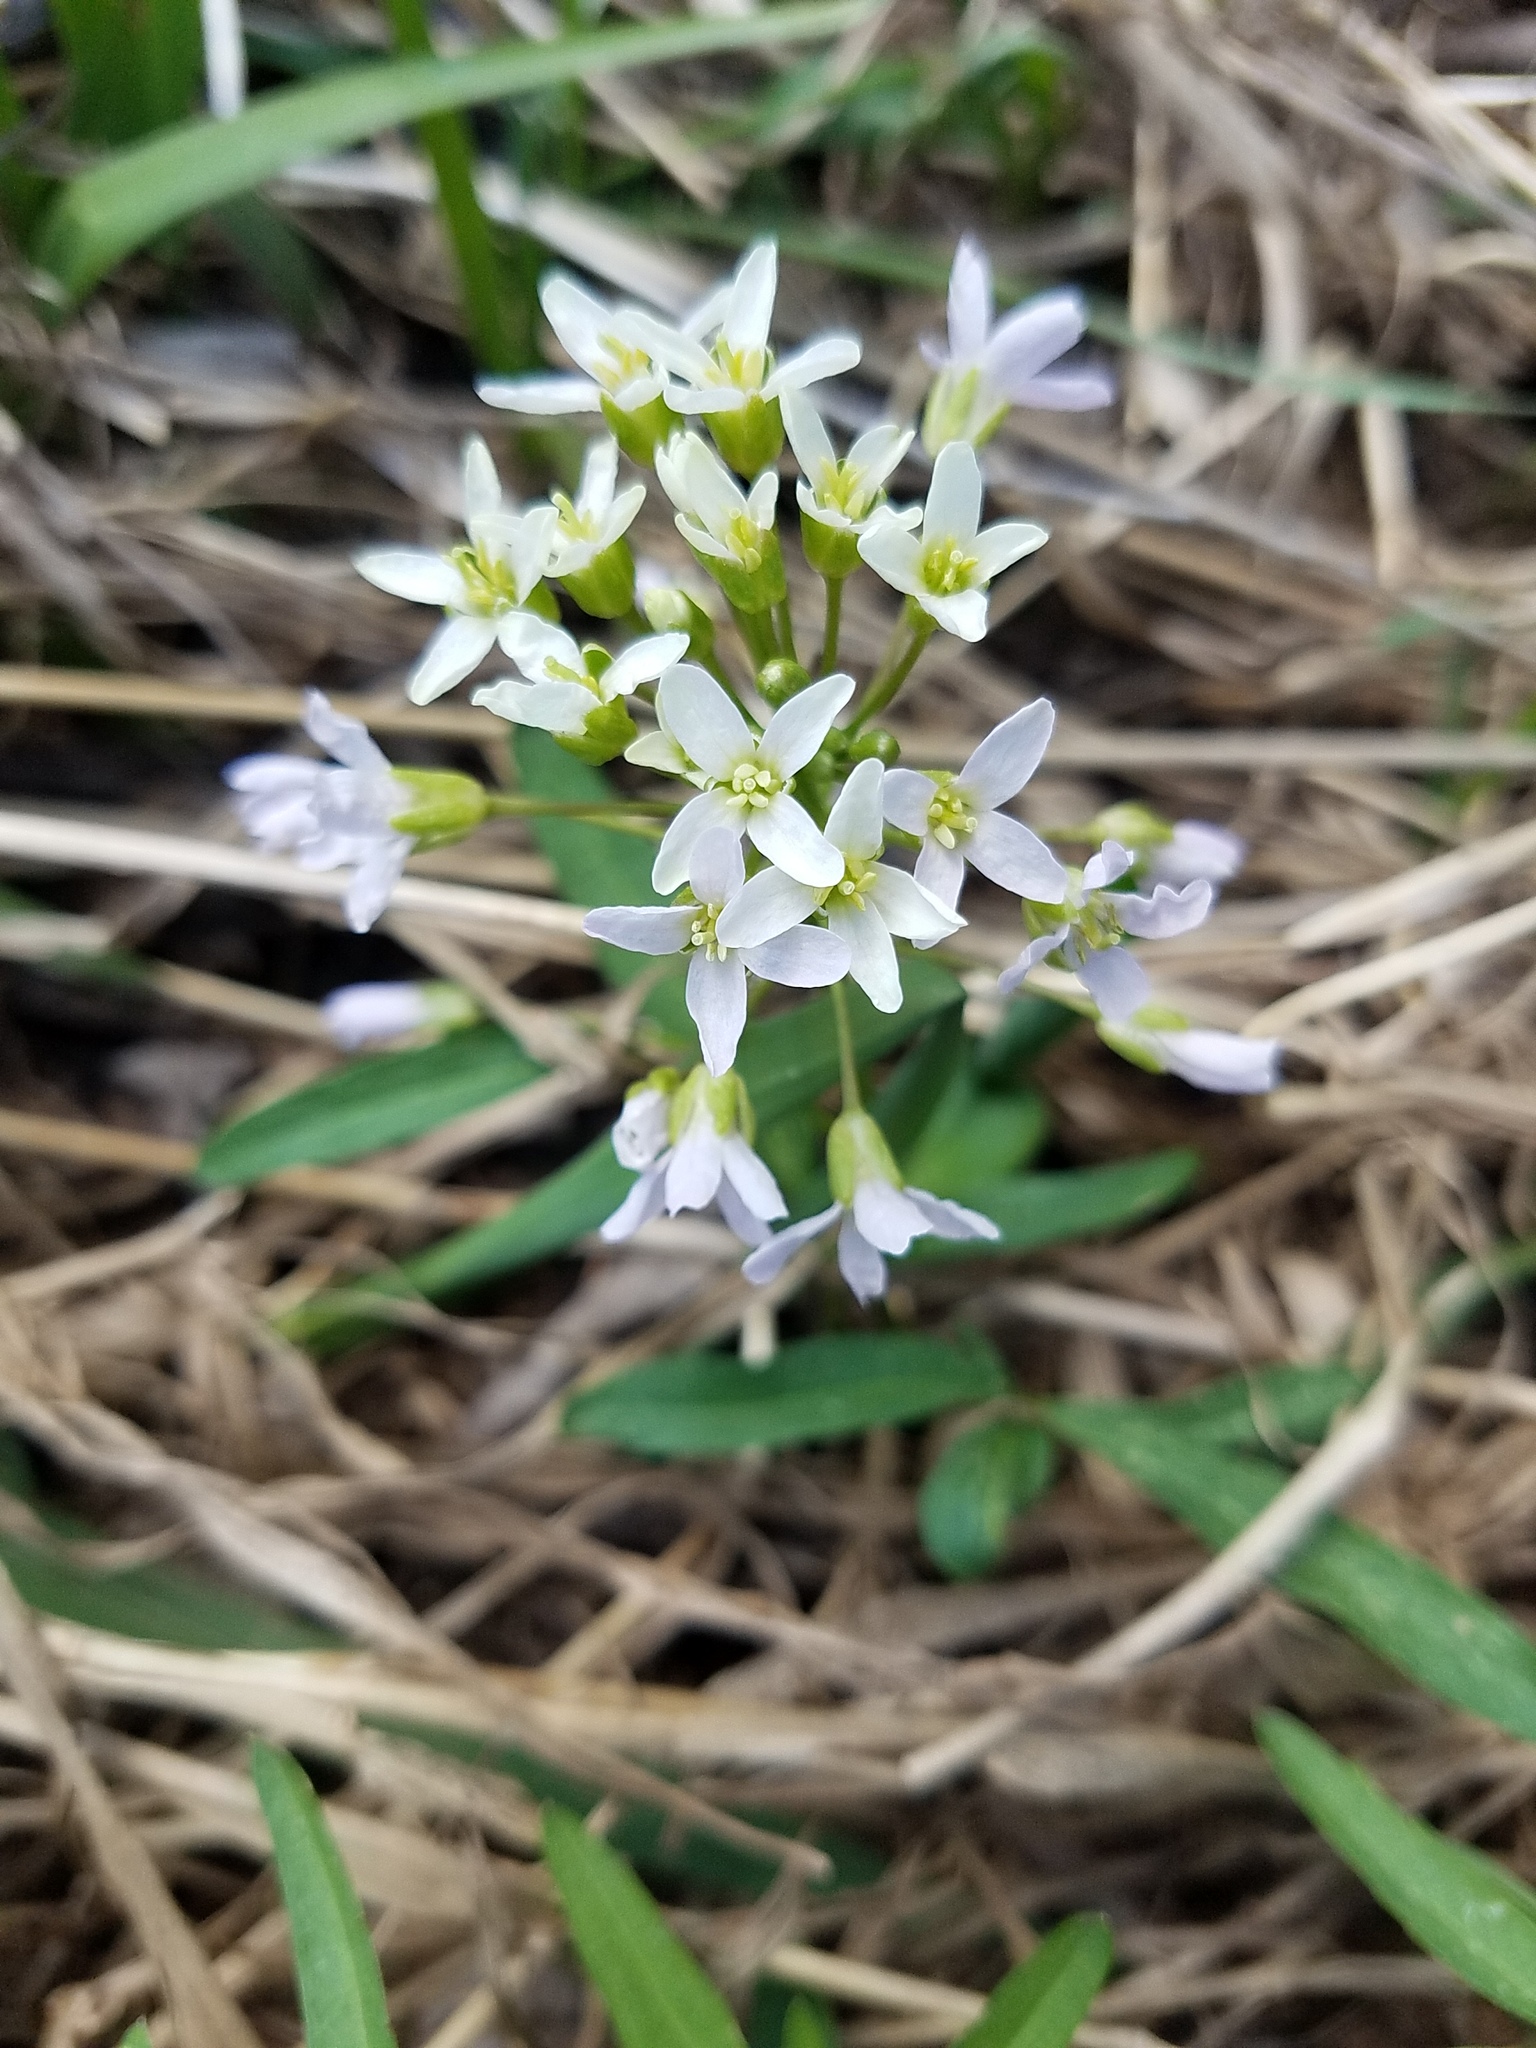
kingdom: Plantae
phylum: Tracheophyta
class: Magnoliopsida
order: Brassicales
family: Brassicaceae
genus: Cardamine
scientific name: Cardamine concatenata
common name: Cut-leaf toothcup
